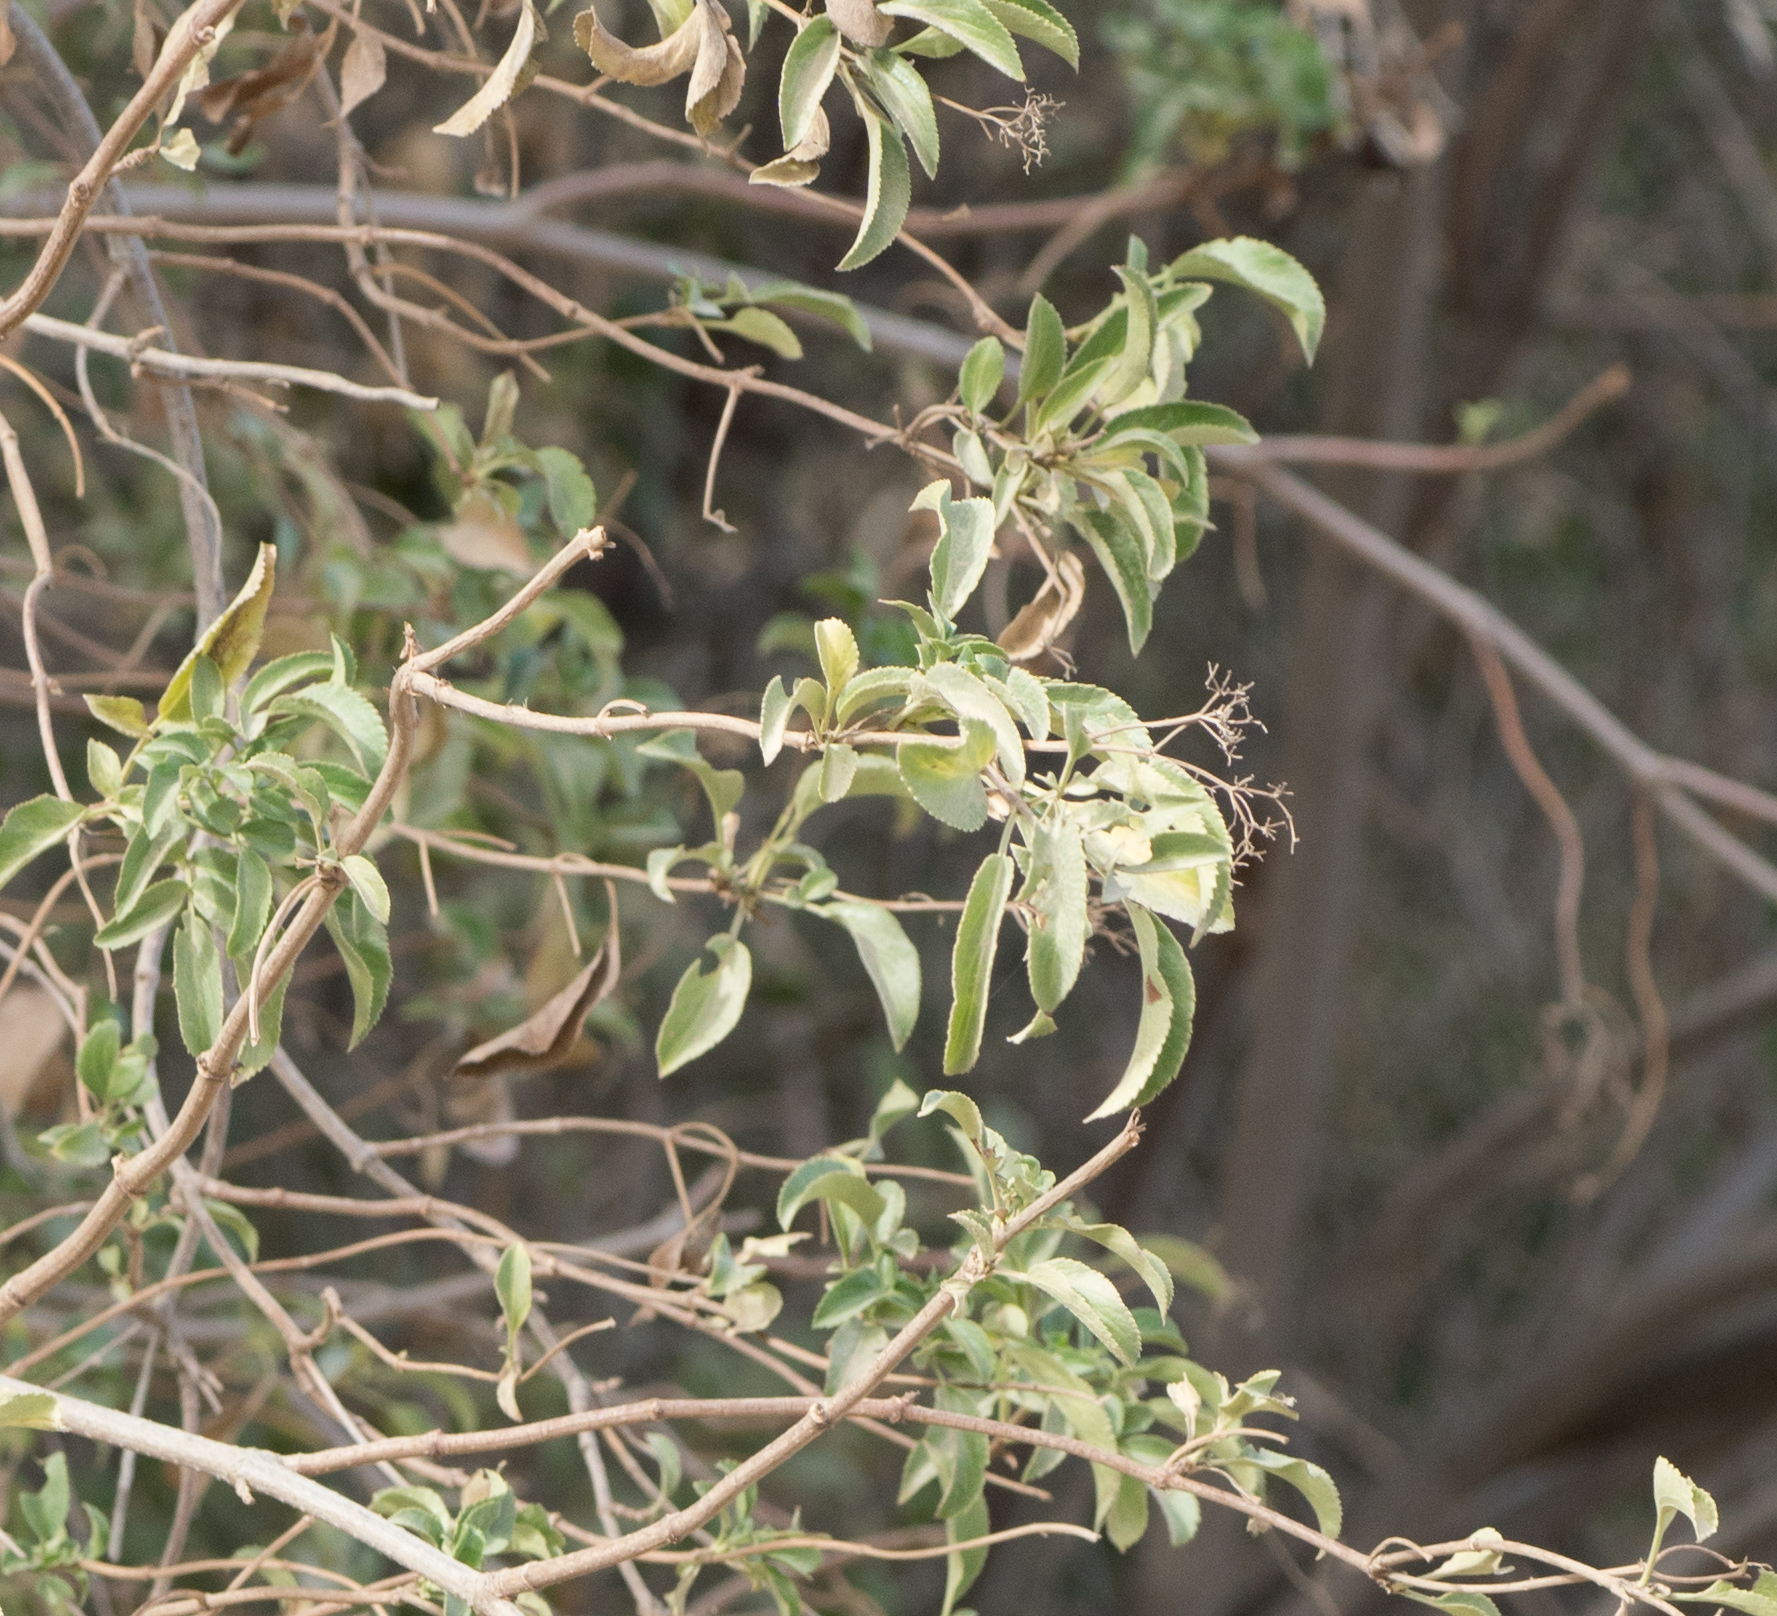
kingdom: Plantae
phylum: Tracheophyta
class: Magnoliopsida
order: Dipsacales
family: Viburnaceae
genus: Sambucus
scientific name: Sambucus cerulea
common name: Blue elder
